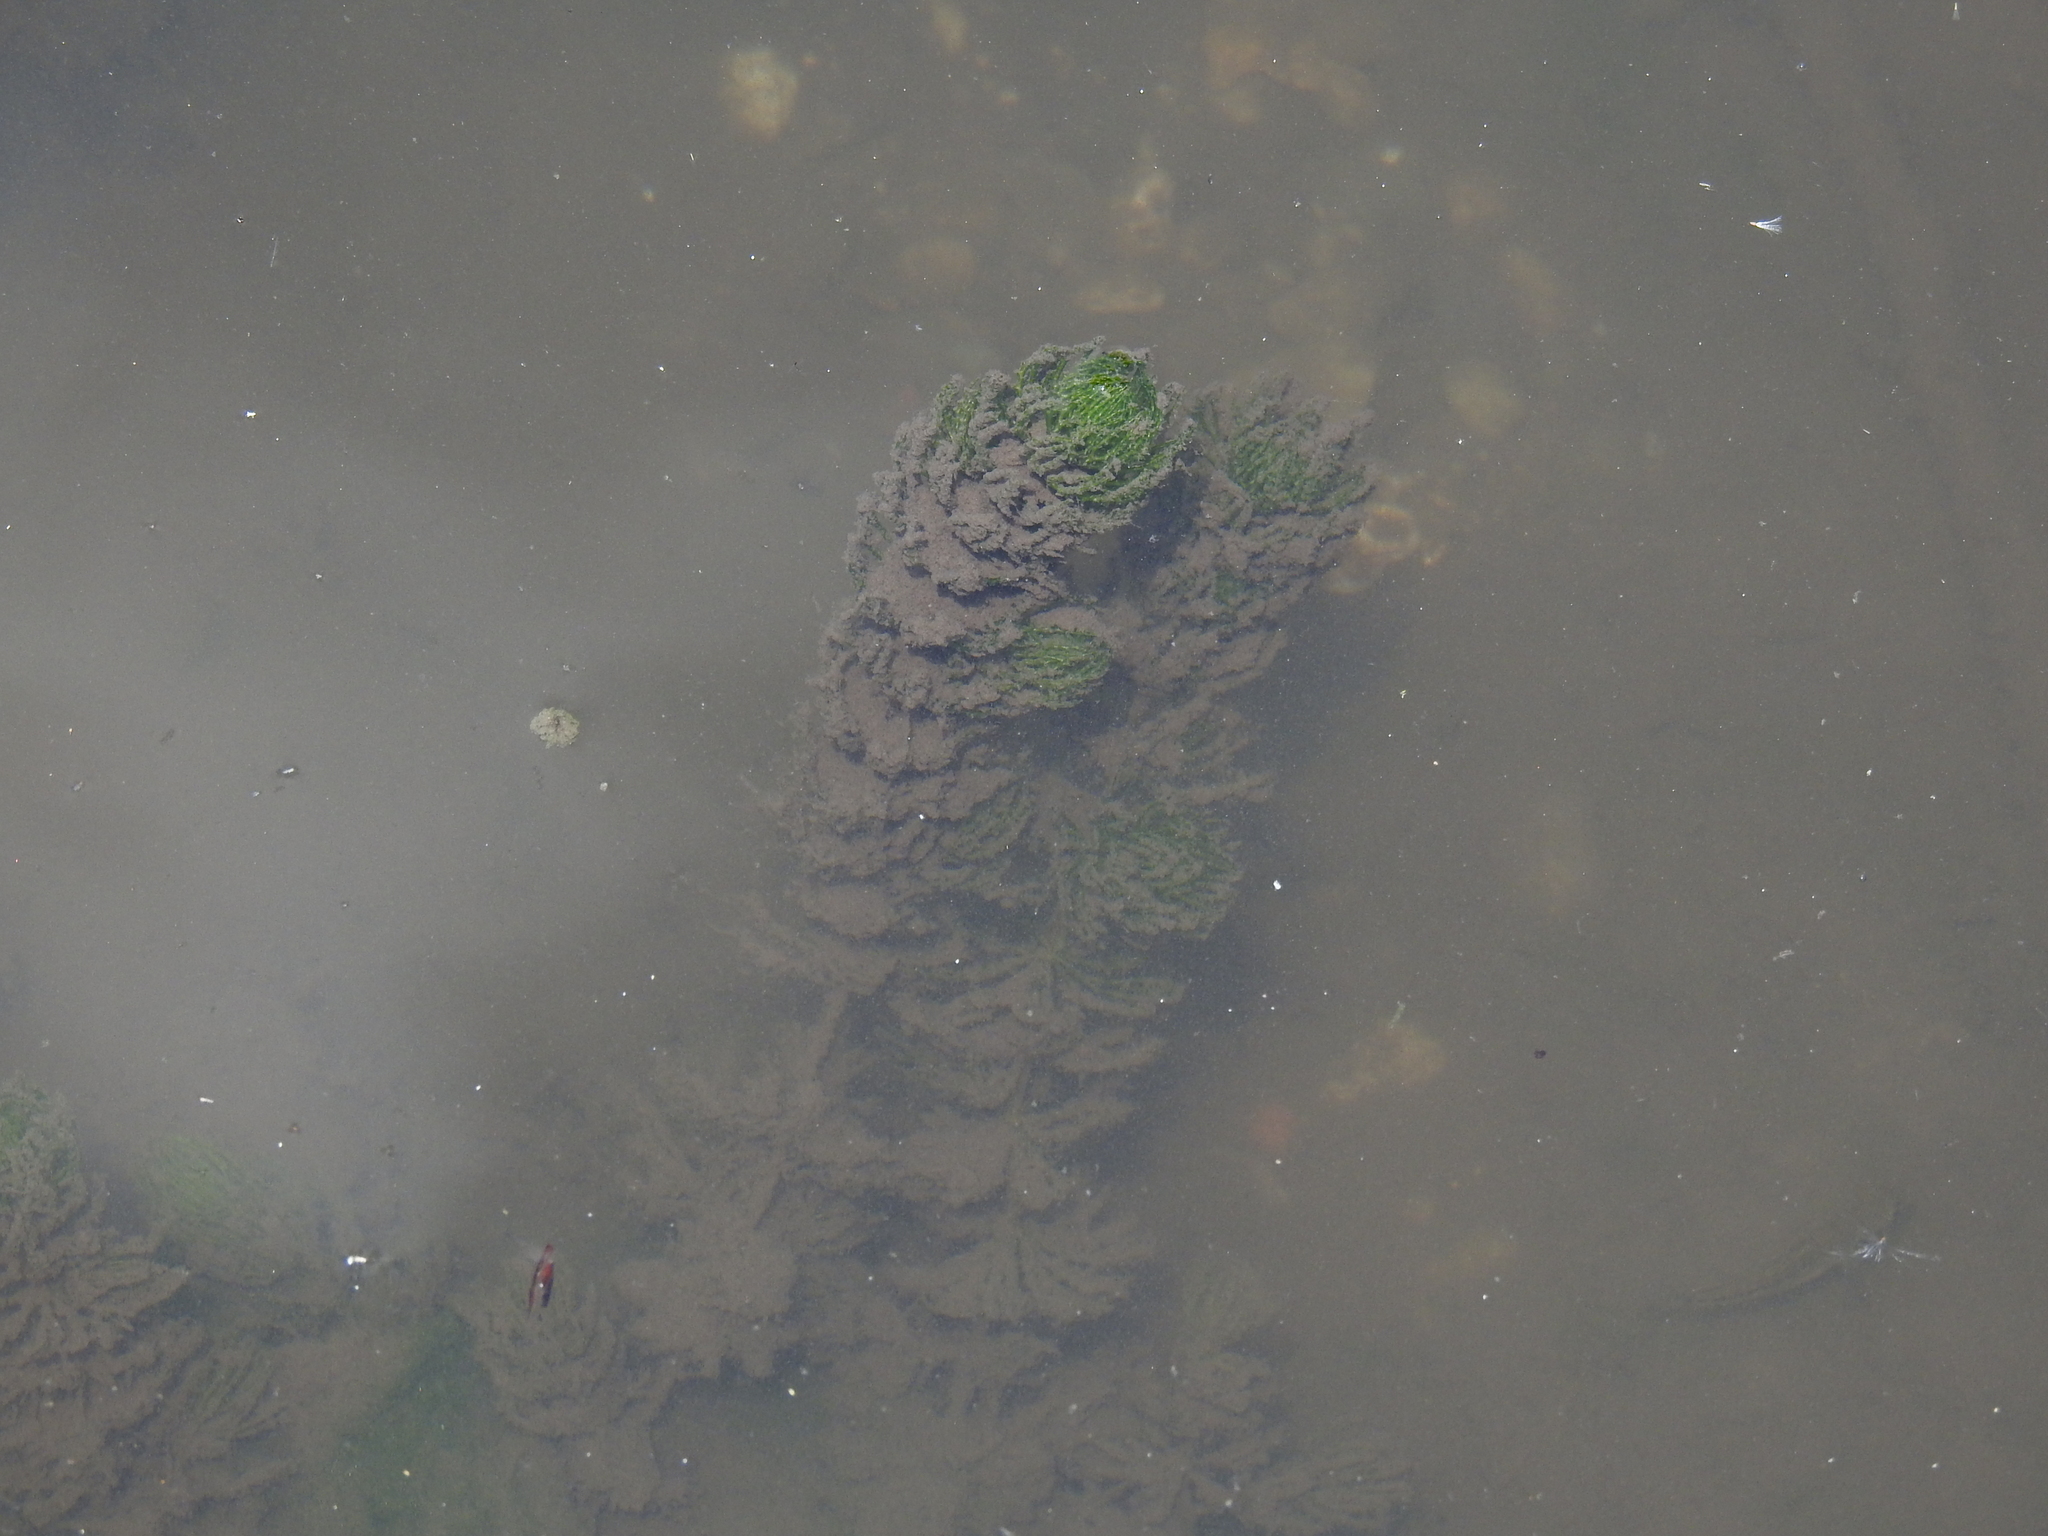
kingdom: Plantae
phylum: Tracheophyta
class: Magnoliopsida
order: Ceratophyllales
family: Ceratophyllaceae
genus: Ceratophyllum
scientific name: Ceratophyllum demersum
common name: Rigid hornwort
